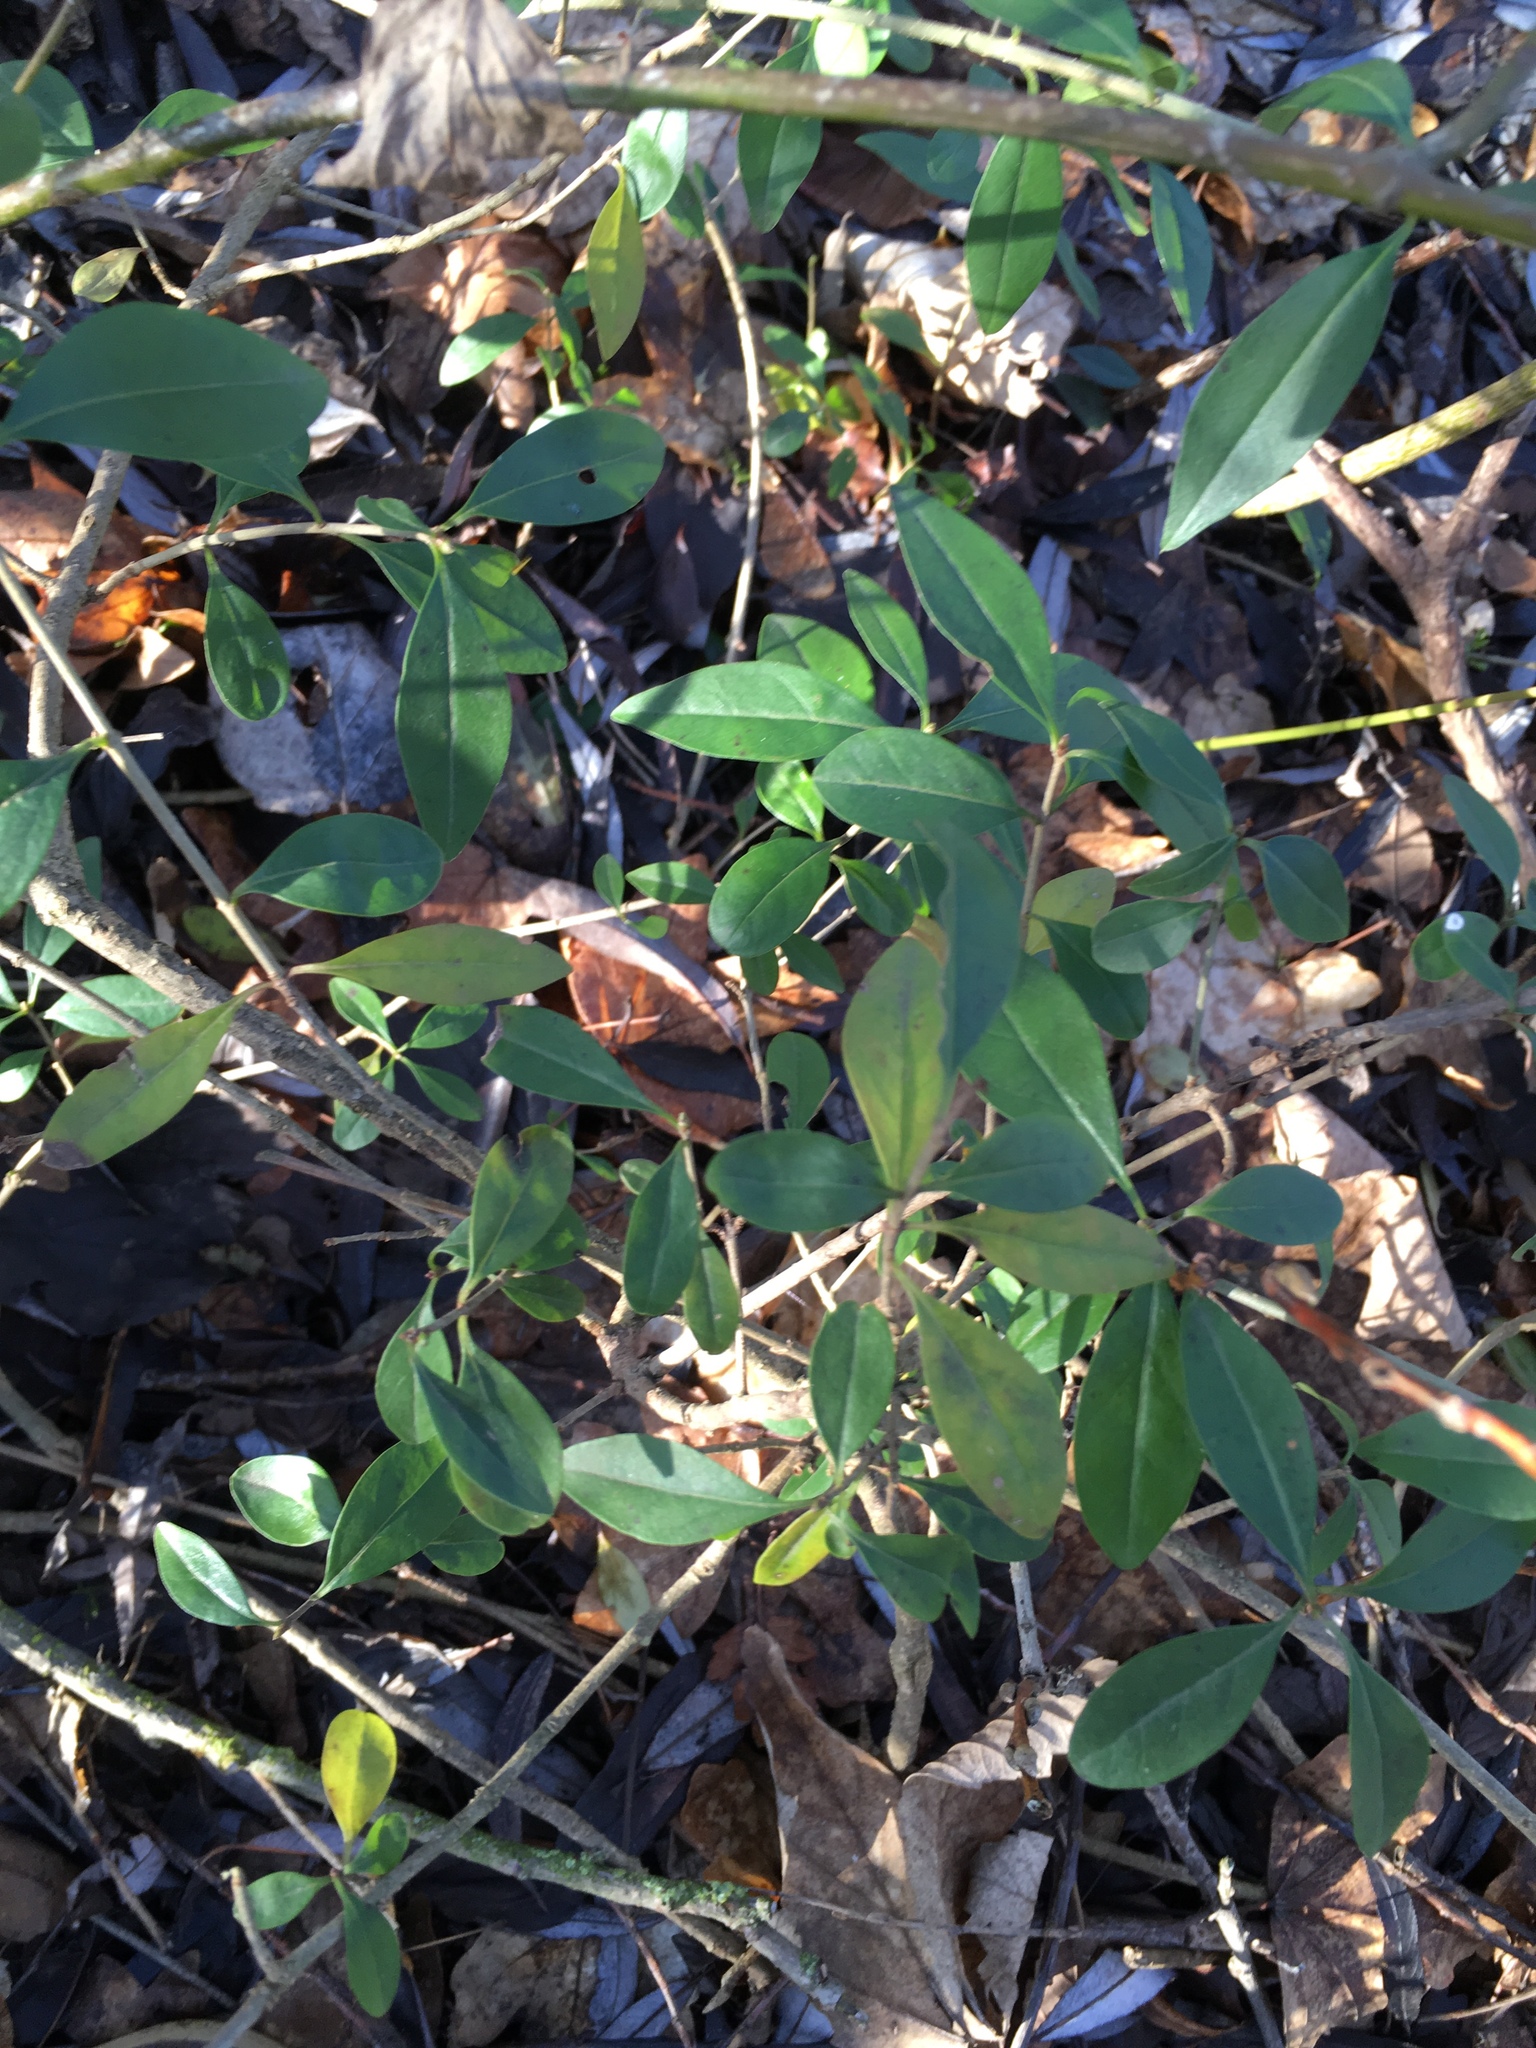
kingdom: Plantae
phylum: Tracheophyta
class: Magnoliopsida
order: Gentianales
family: Apocynaceae
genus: Vinca
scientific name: Vinca minor
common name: Lesser periwinkle
